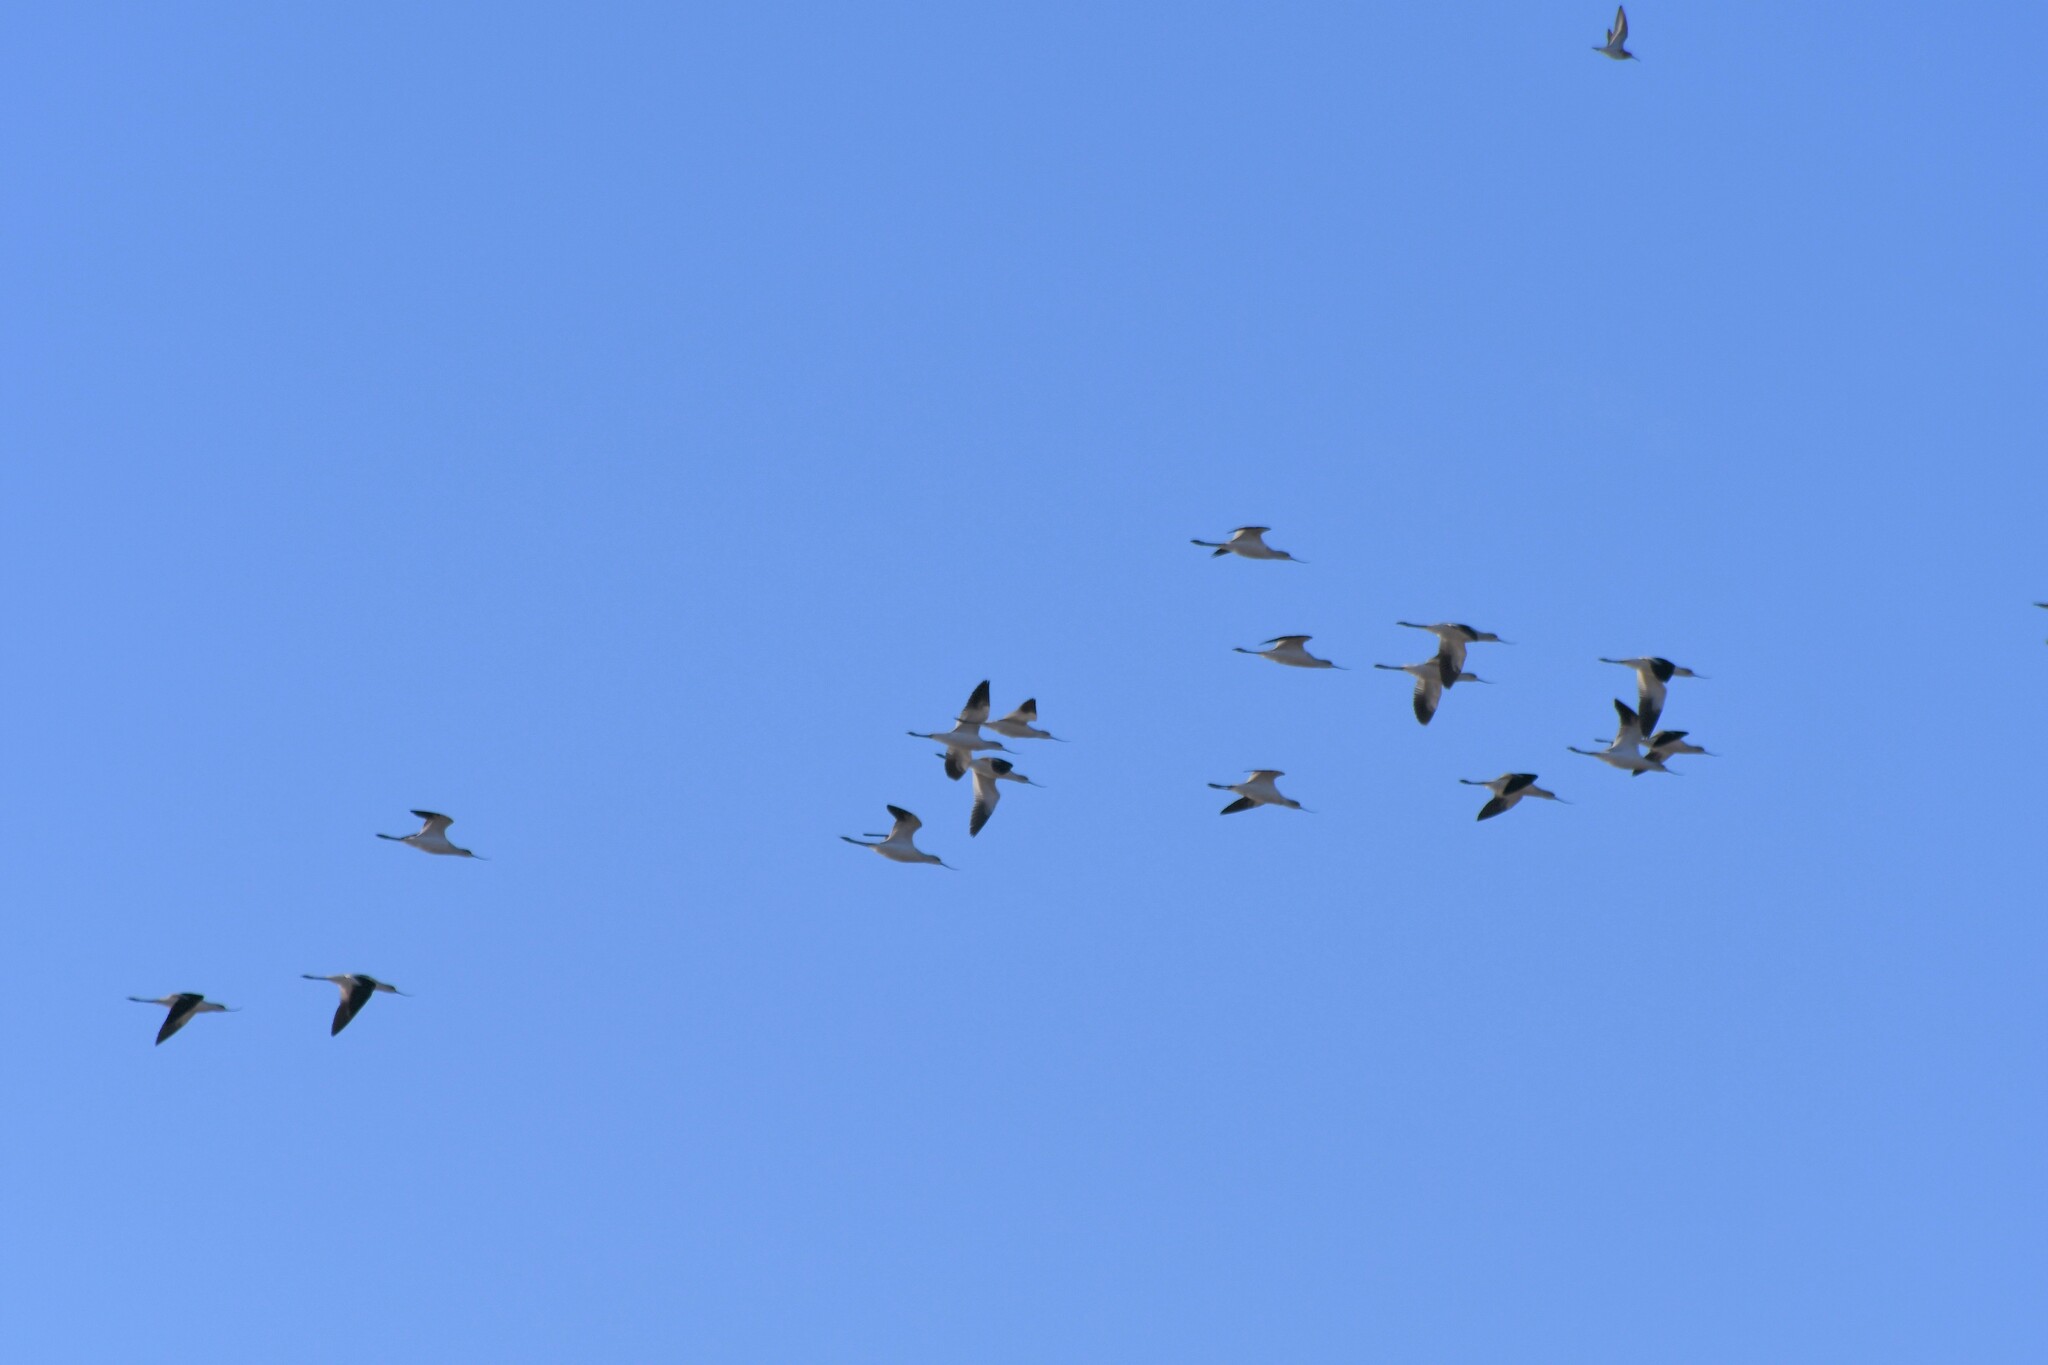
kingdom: Animalia
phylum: Chordata
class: Aves
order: Charadriiformes
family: Recurvirostridae
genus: Recurvirostra
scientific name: Recurvirostra americana
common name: American avocet
